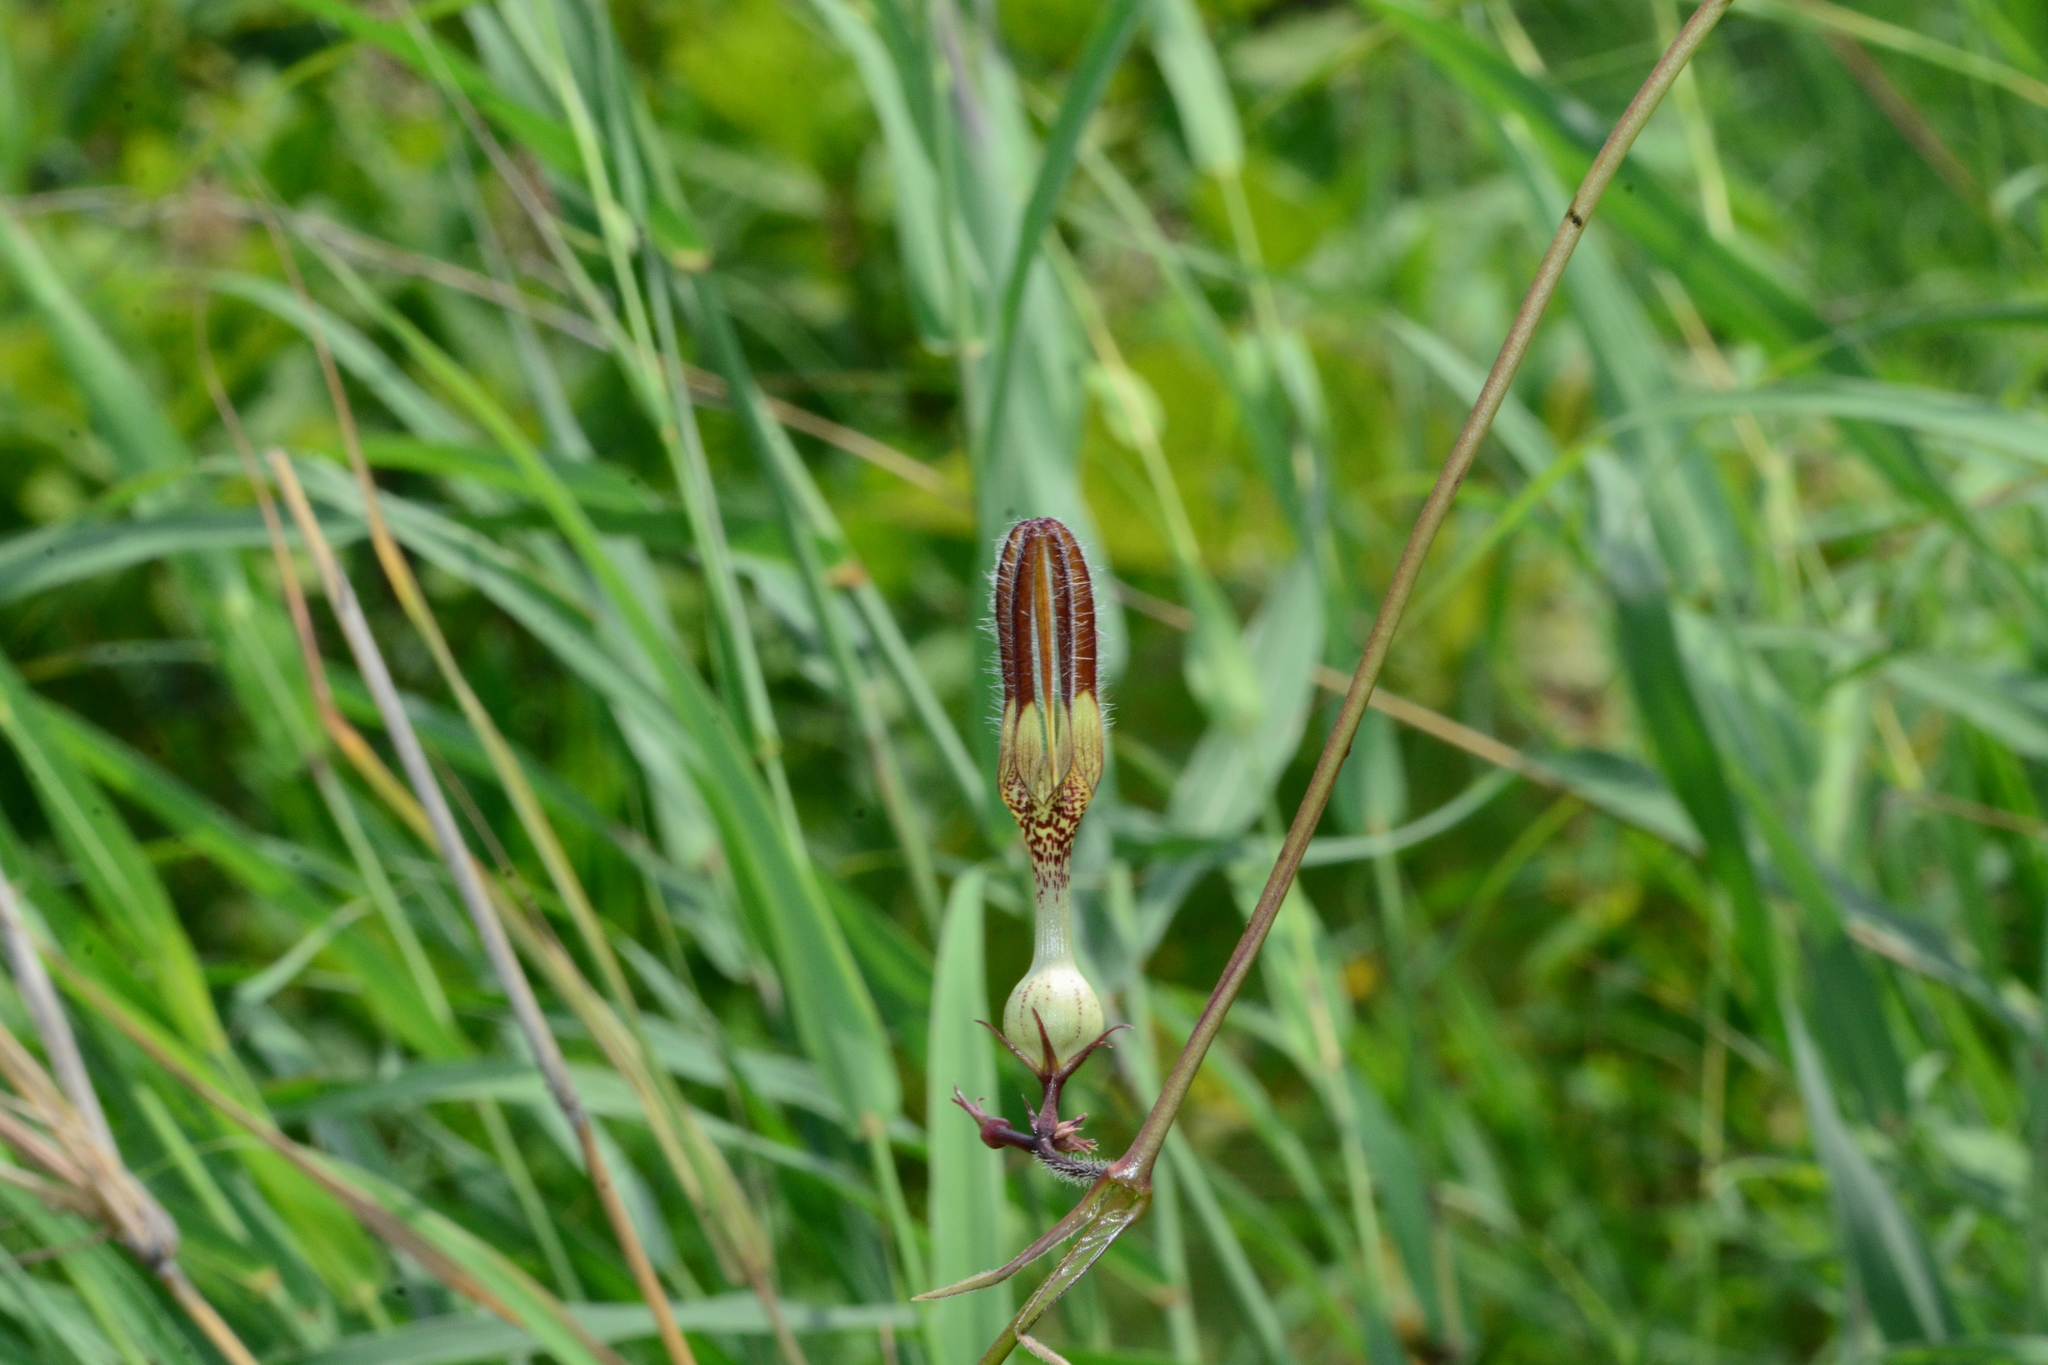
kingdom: Plantae
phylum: Tracheophyta
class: Magnoliopsida
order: Gentianales
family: Apocynaceae
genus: Ceropegia
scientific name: Ceropegia vincifolia
